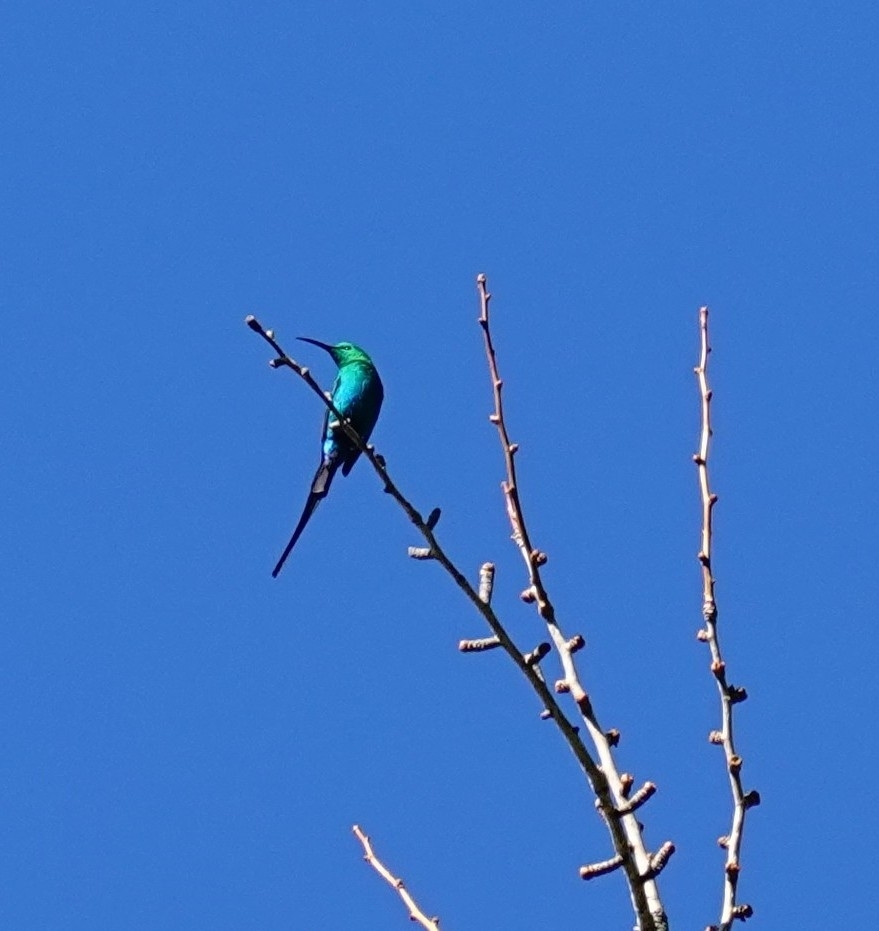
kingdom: Animalia
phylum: Chordata
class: Aves
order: Passeriformes
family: Nectariniidae
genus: Nectarinia
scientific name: Nectarinia famosa
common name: Malachite sunbird
